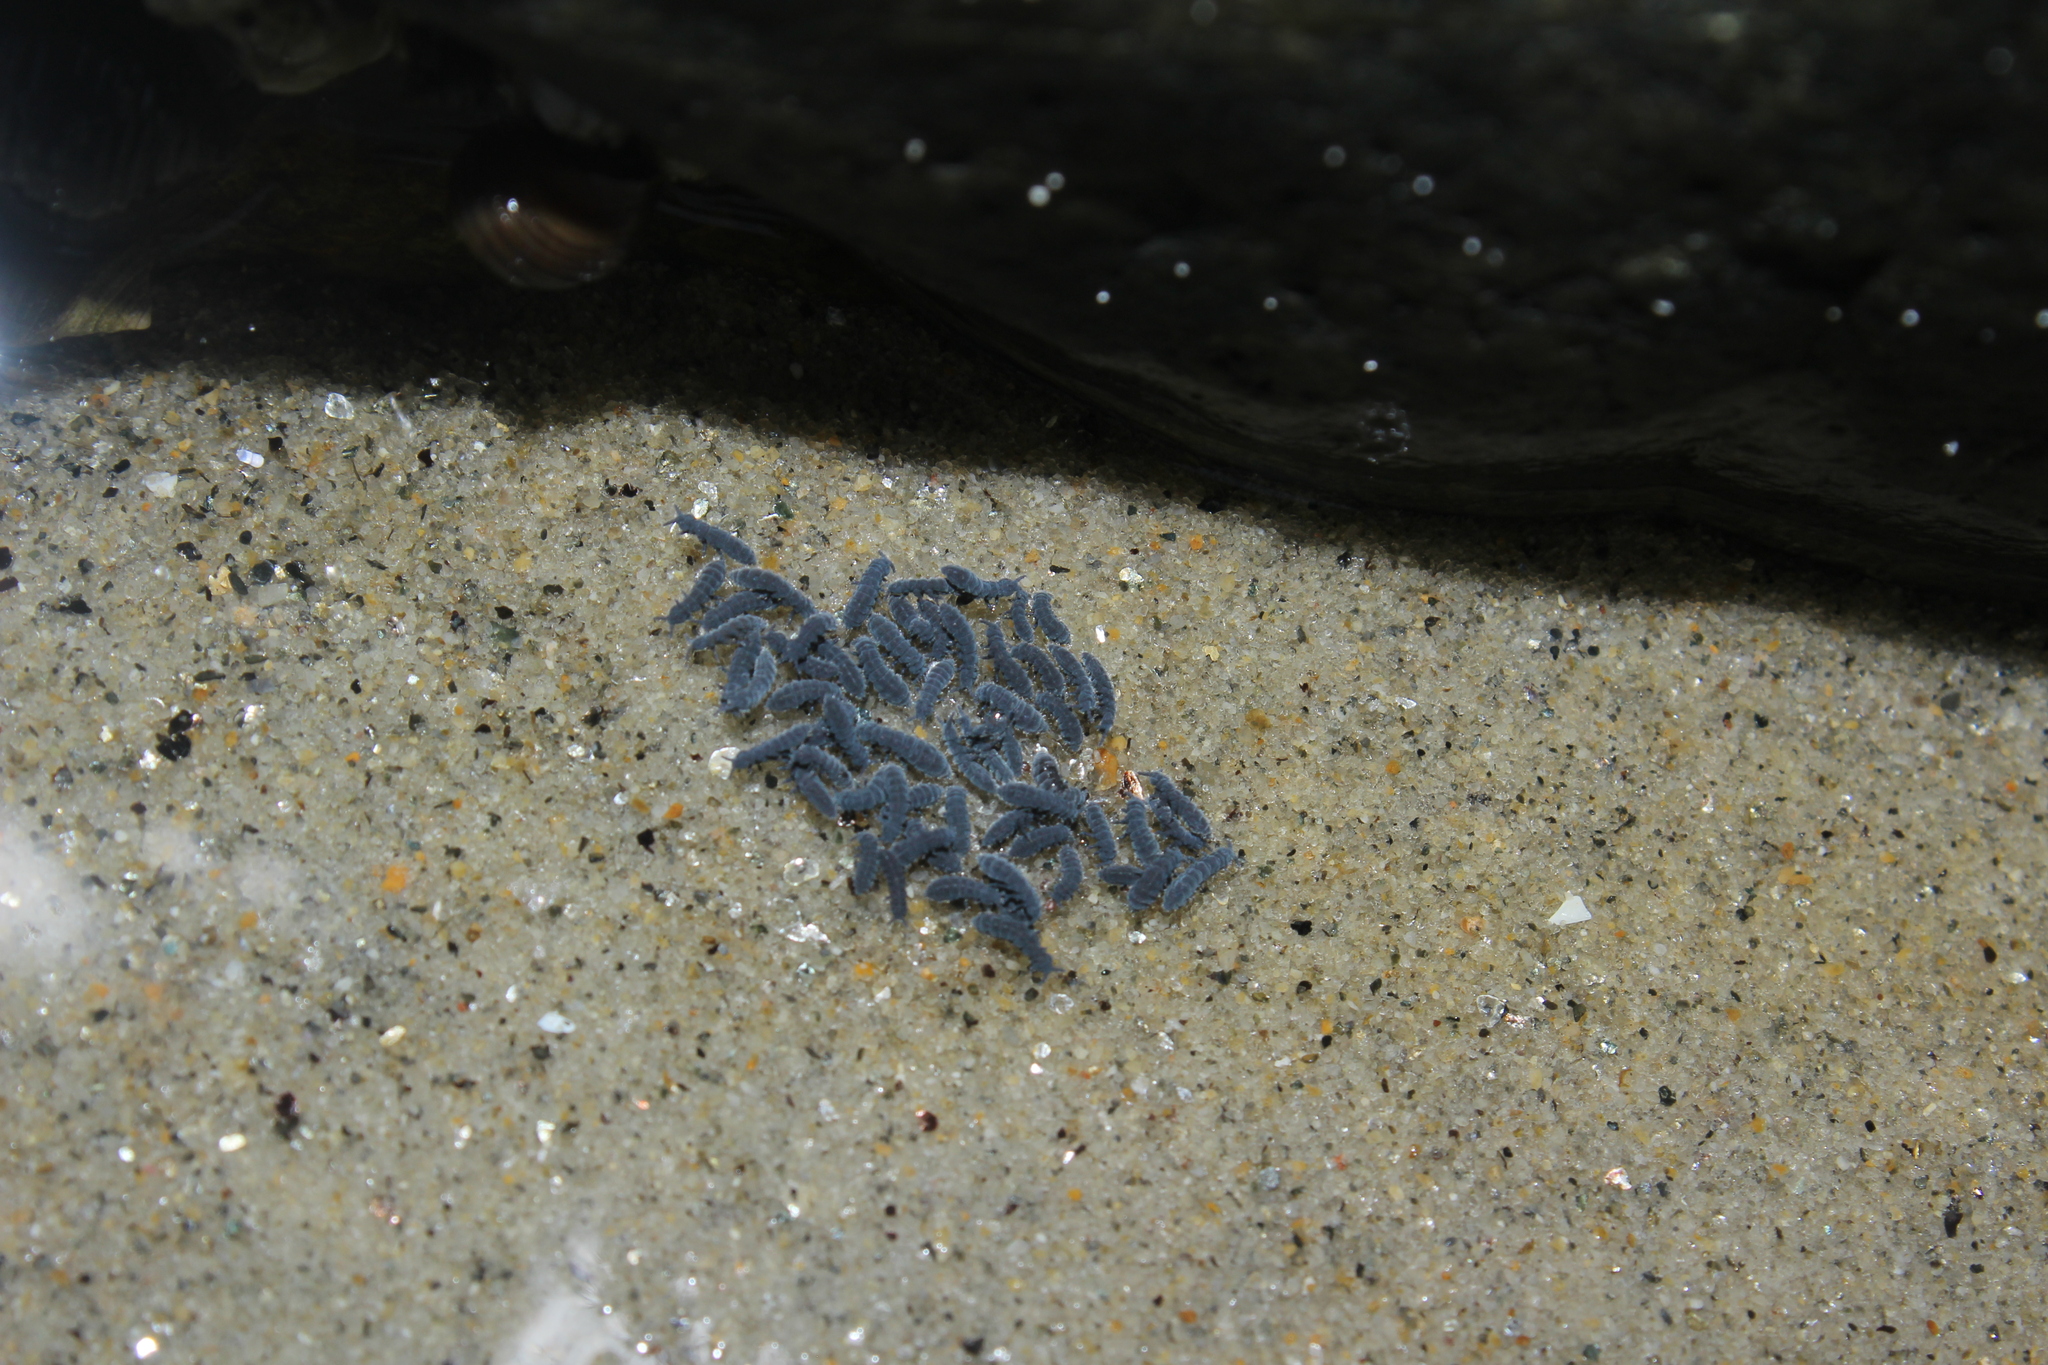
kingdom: Animalia
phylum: Arthropoda
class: Collembola
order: Poduromorpha
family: Neanuridae
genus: Anurida
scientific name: Anurida maritima
